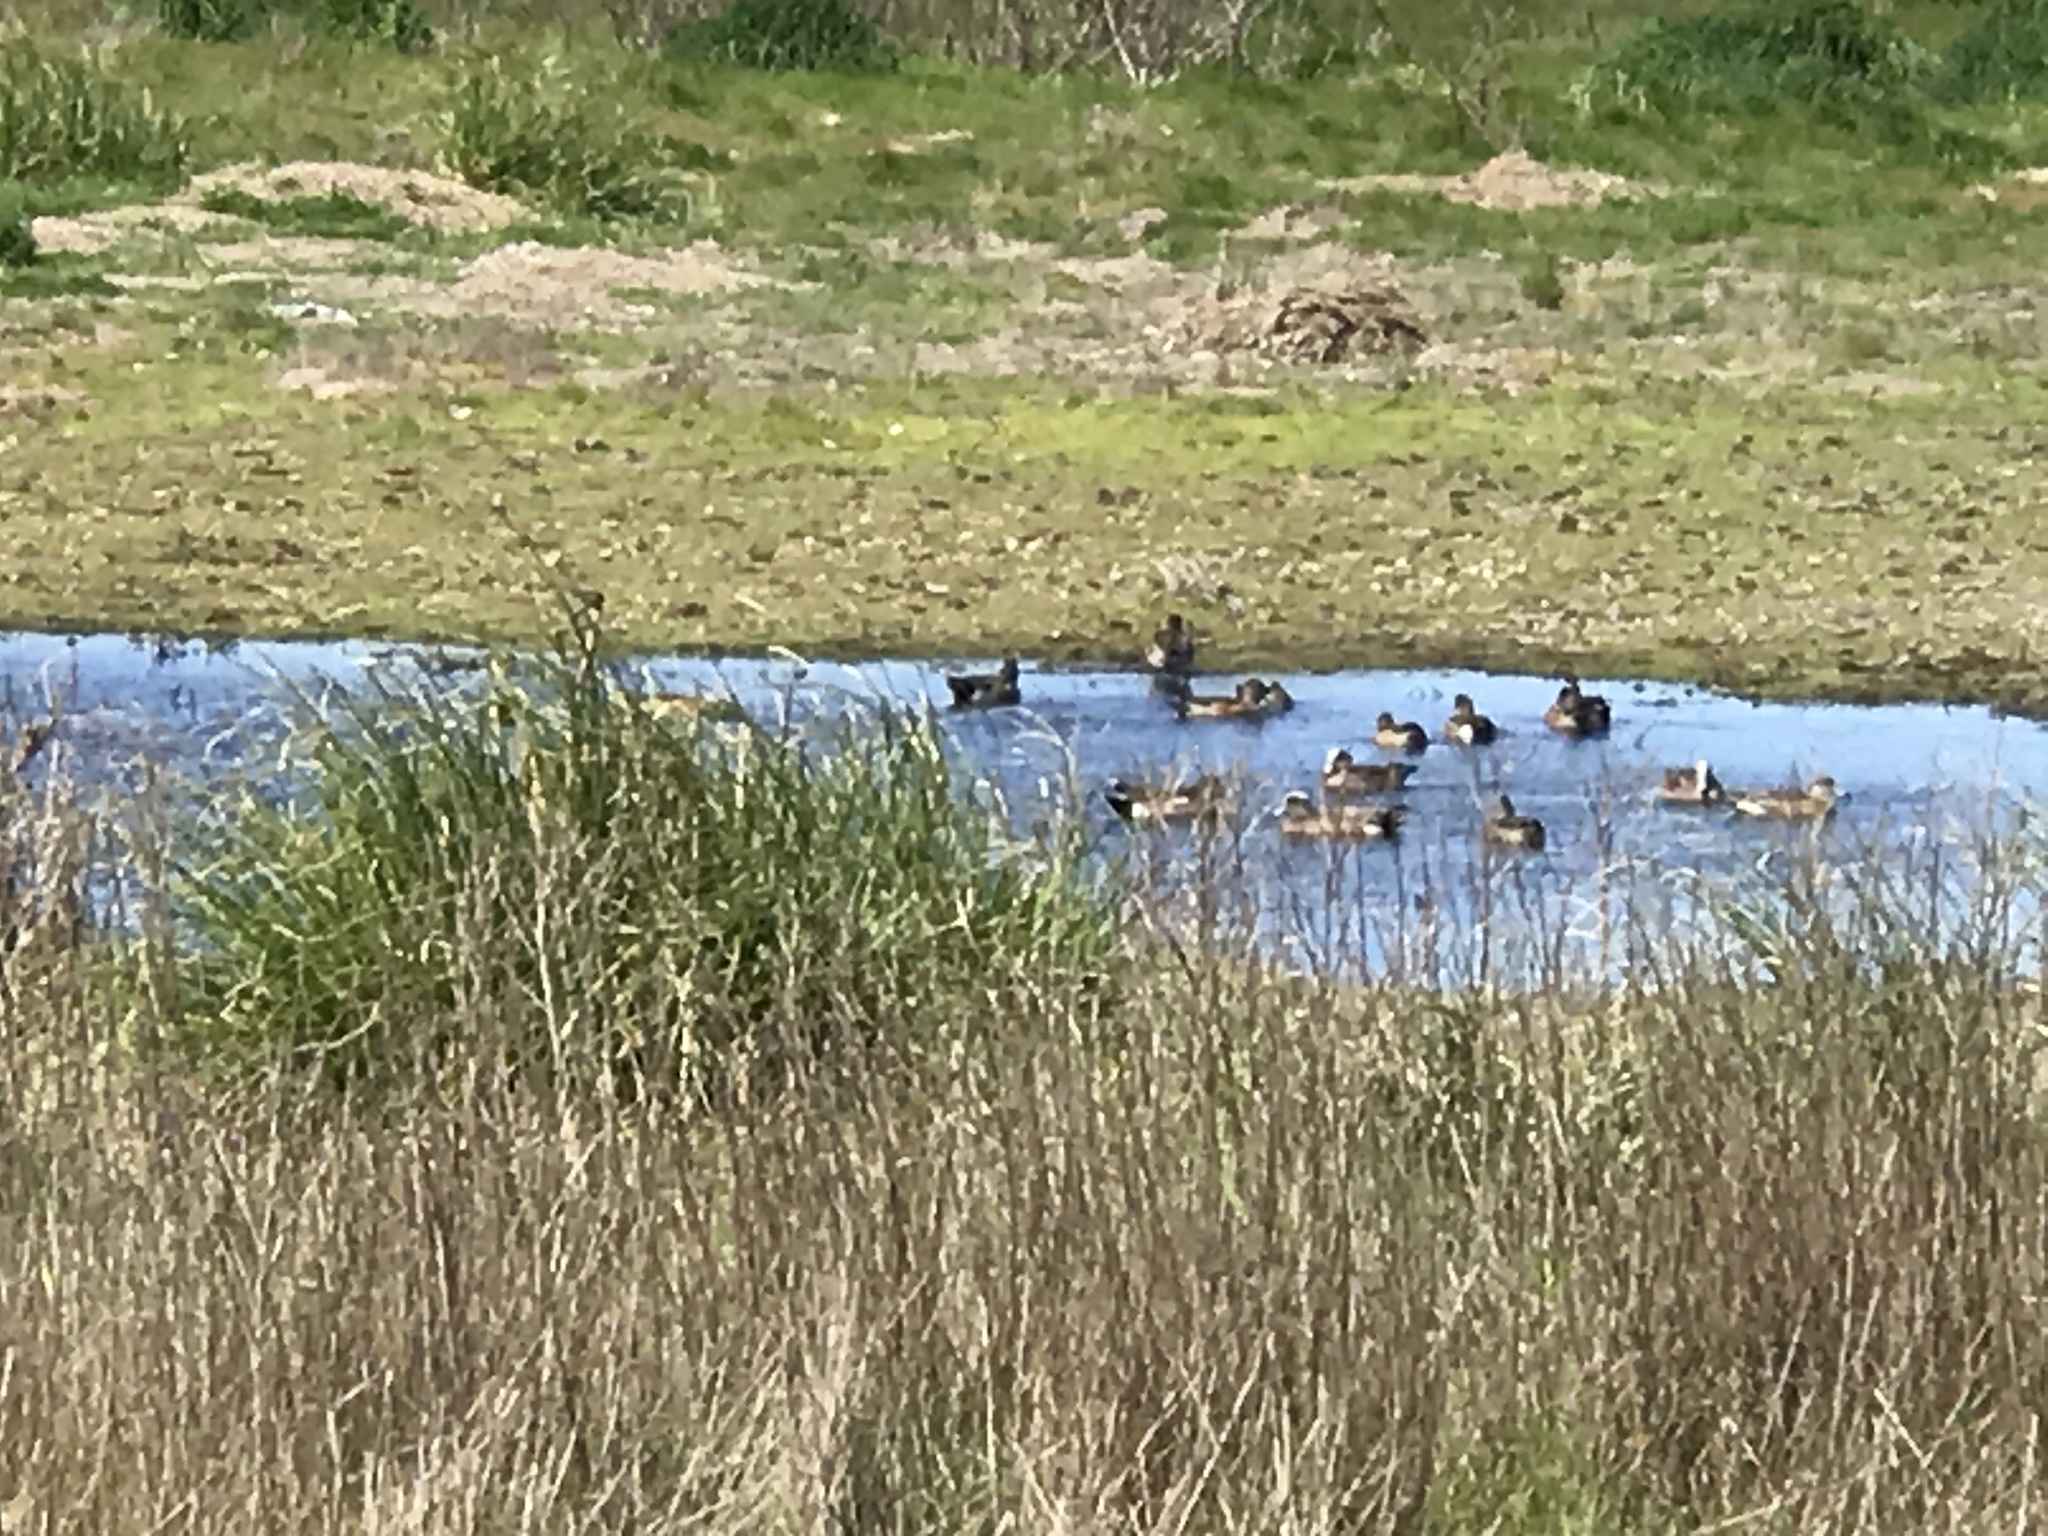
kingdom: Animalia
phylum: Chordata
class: Aves
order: Anseriformes
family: Anatidae
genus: Mareca
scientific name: Mareca americana
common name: American wigeon
